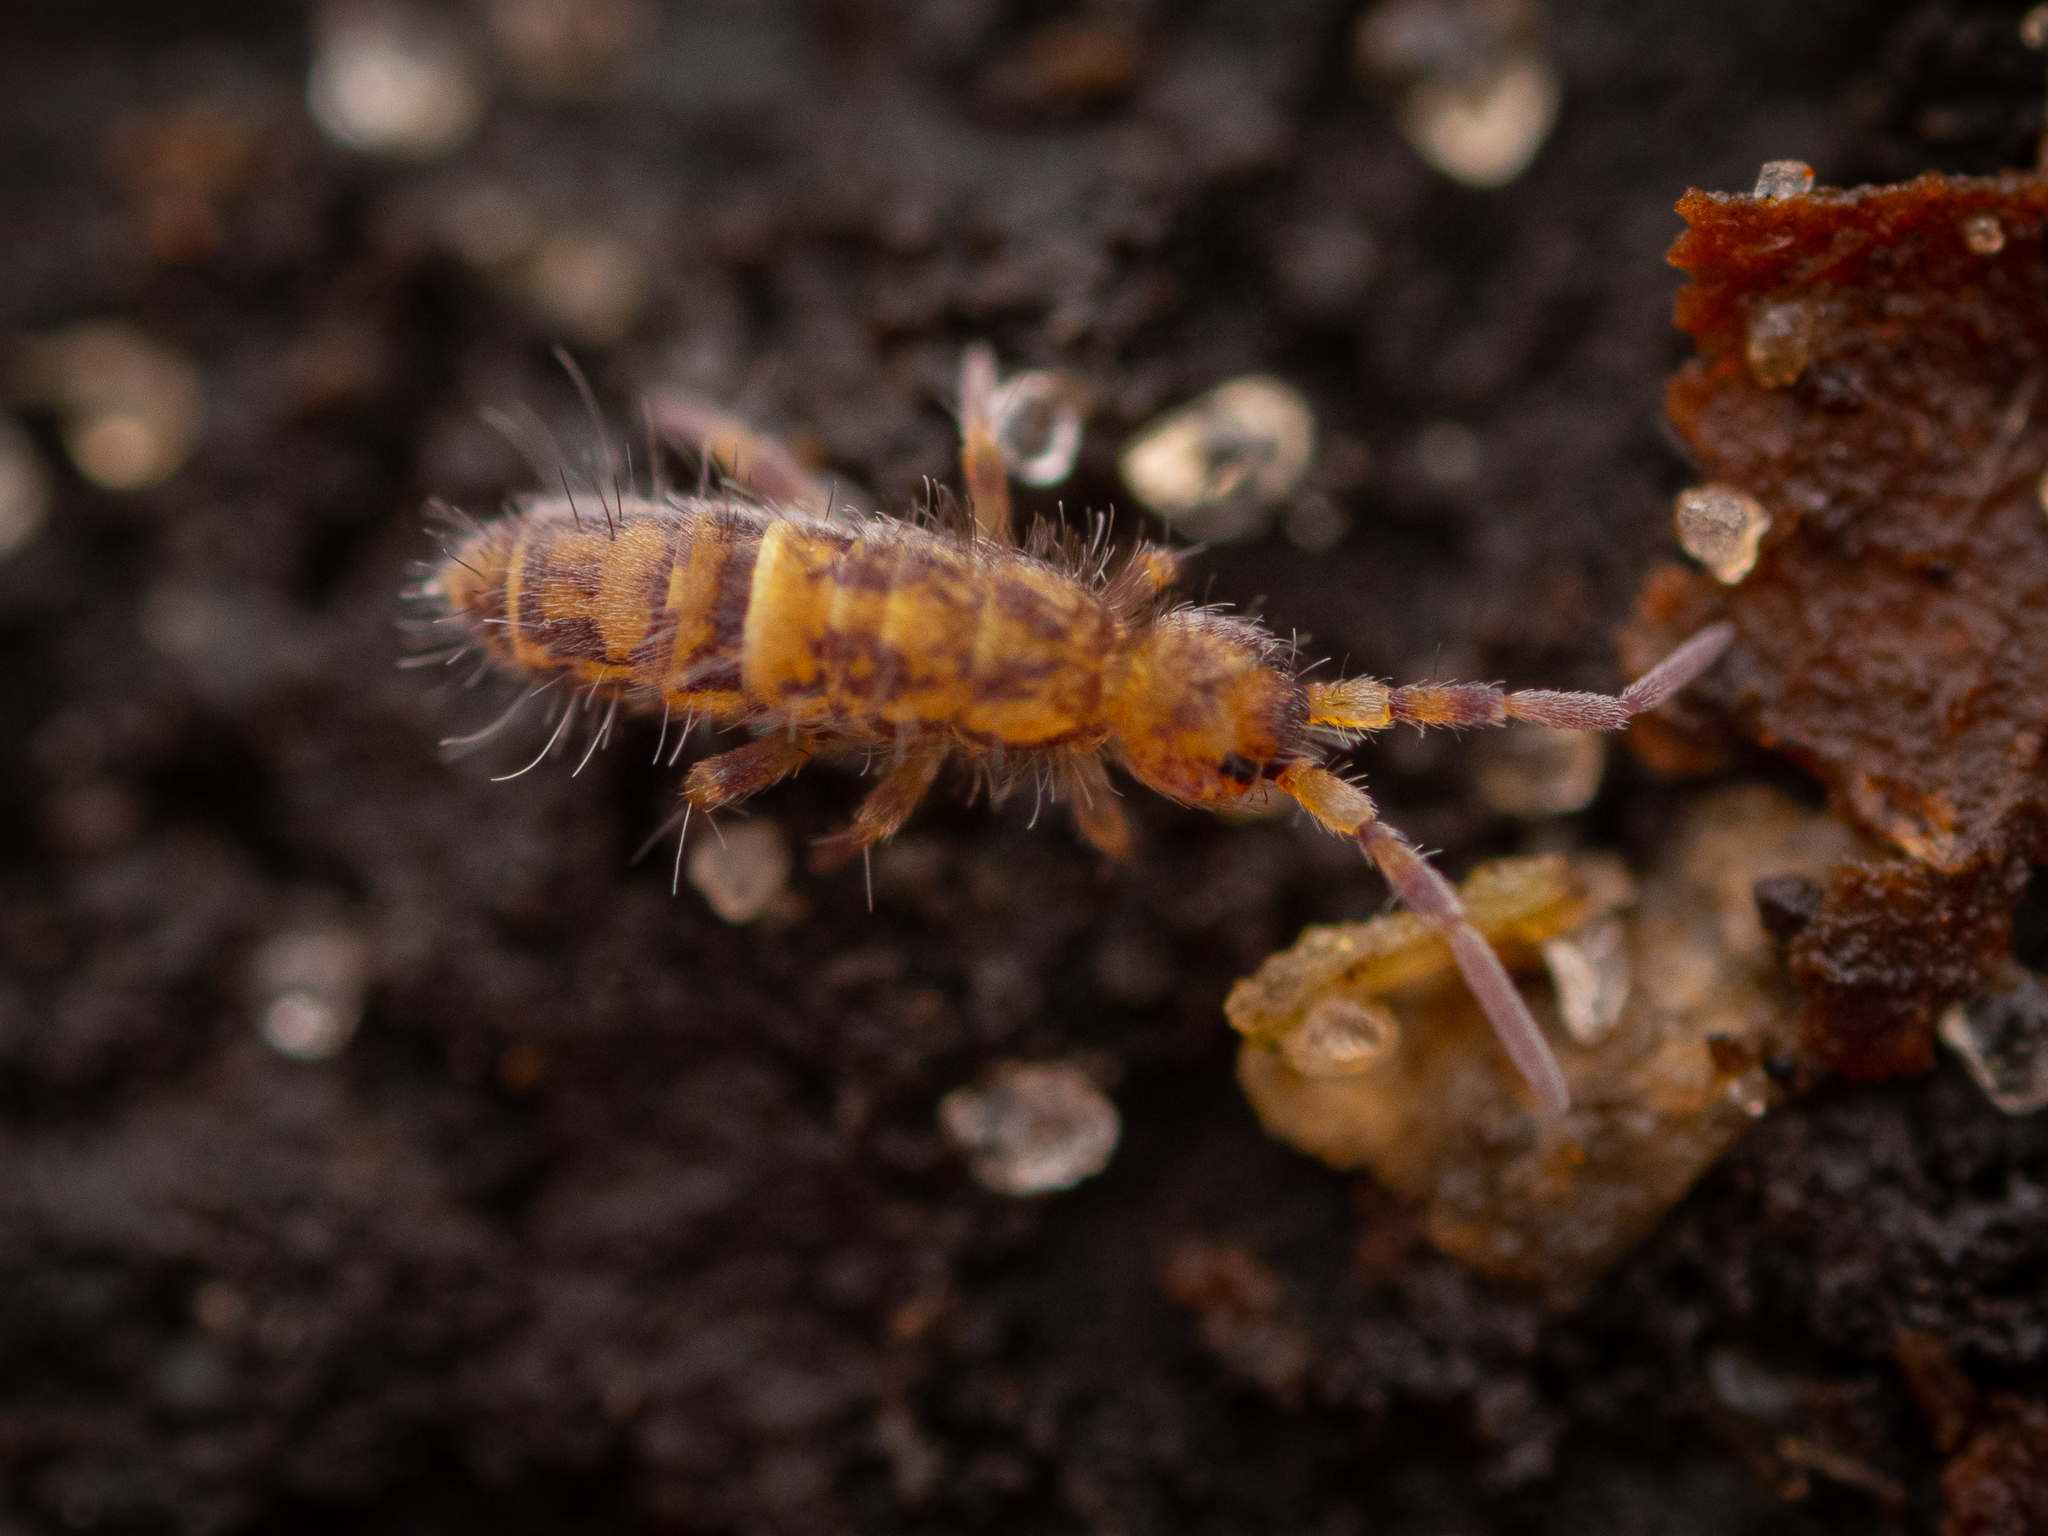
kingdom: Animalia
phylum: Arthropoda
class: Collembola
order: Entomobryomorpha
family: Orchesellidae
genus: Orchesella
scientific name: Orchesella cincta
